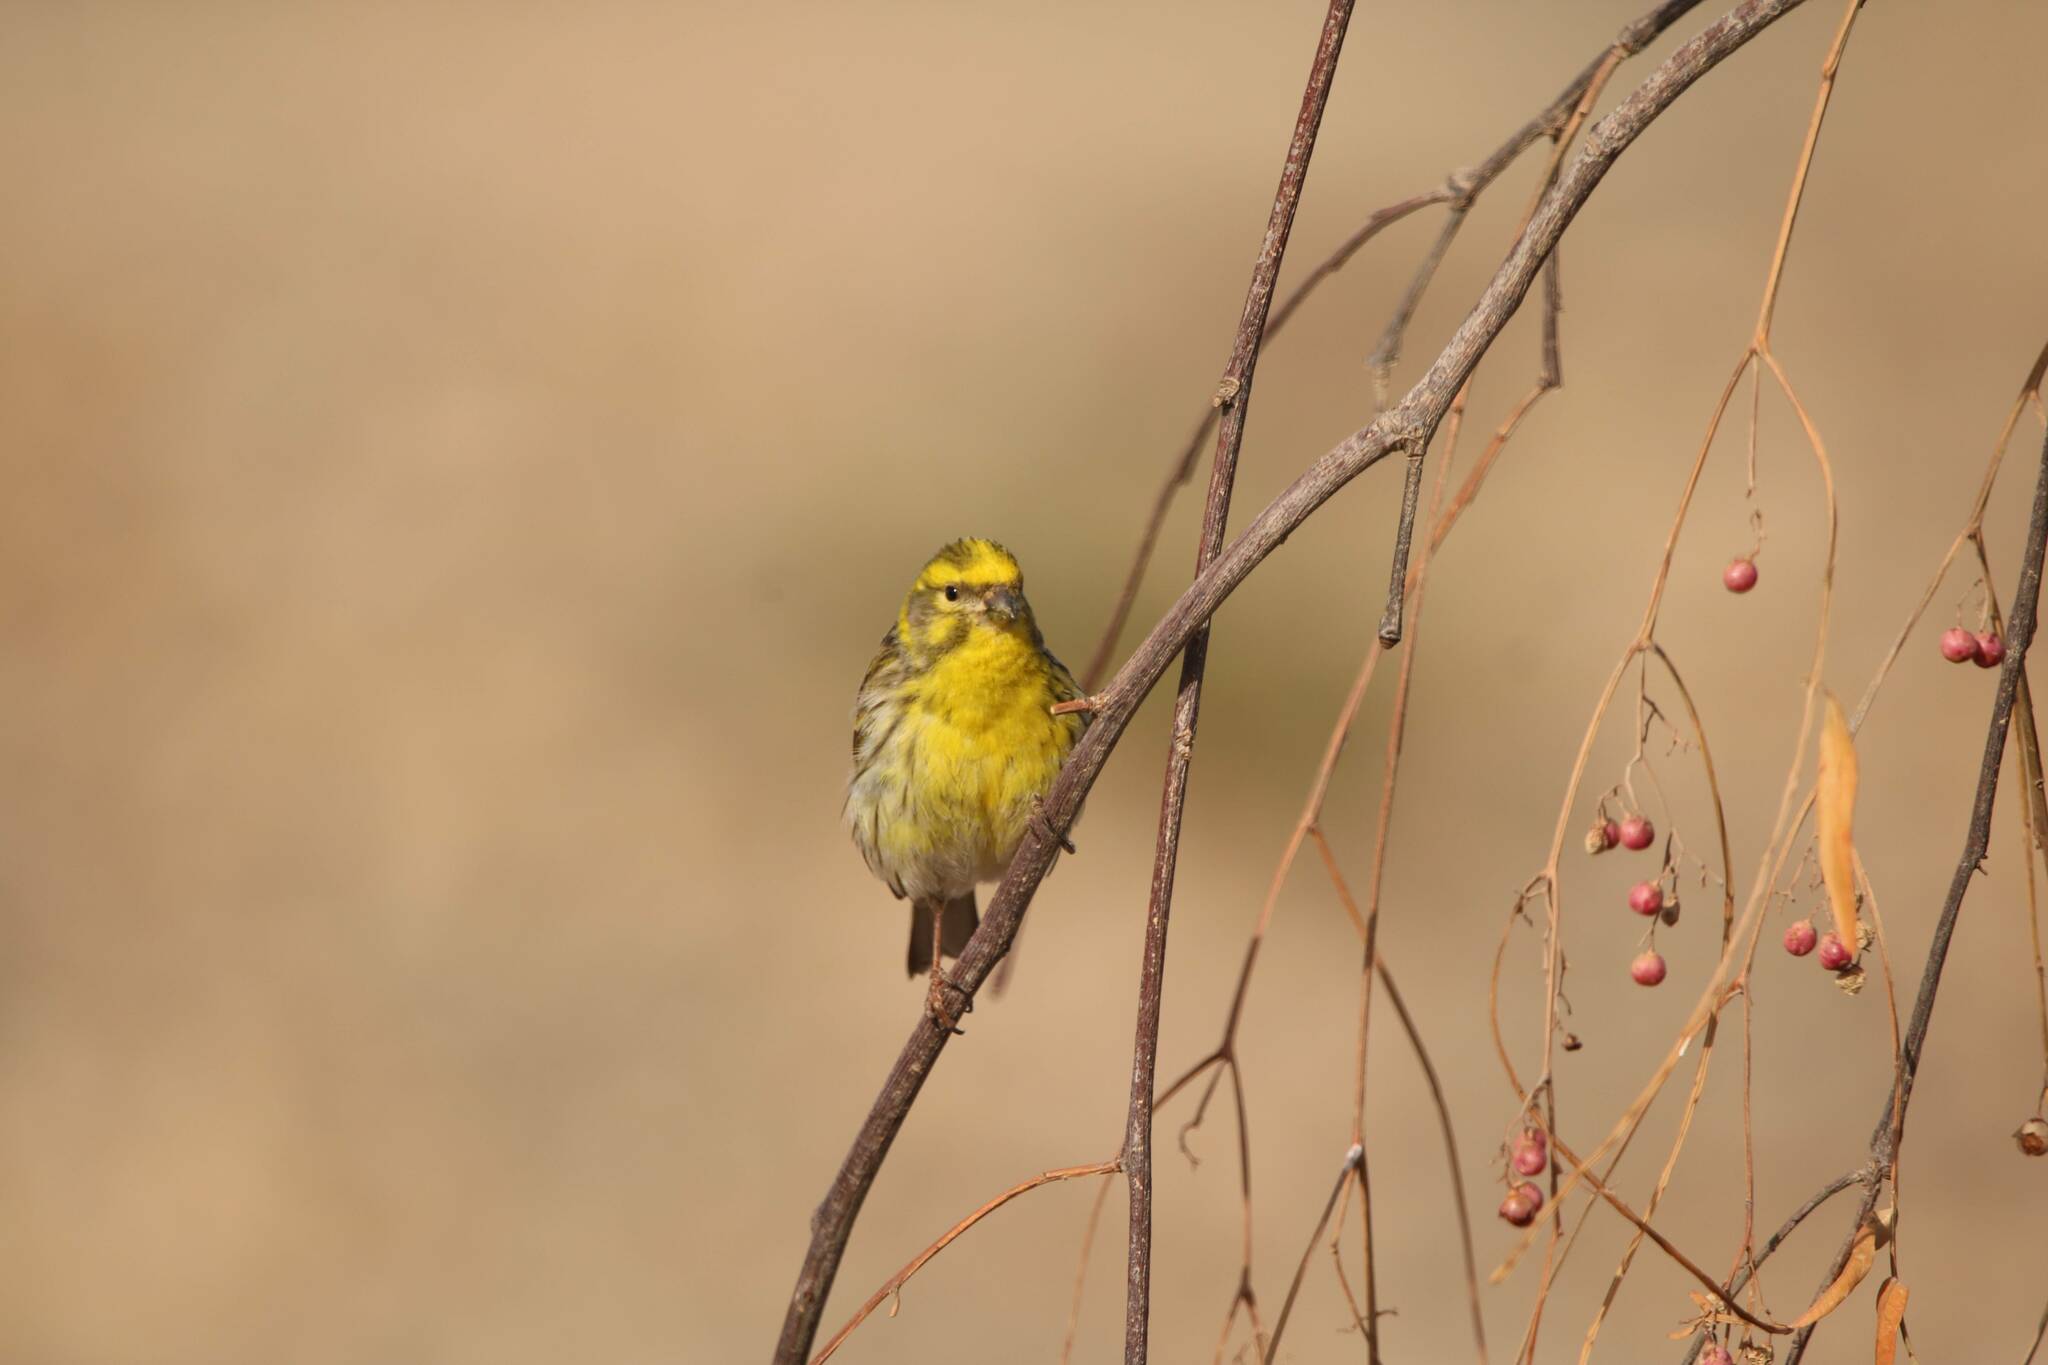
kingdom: Animalia
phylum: Chordata
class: Aves
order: Passeriformes
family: Fringillidae
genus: Serinus
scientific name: Serinus serinus
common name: European serin
